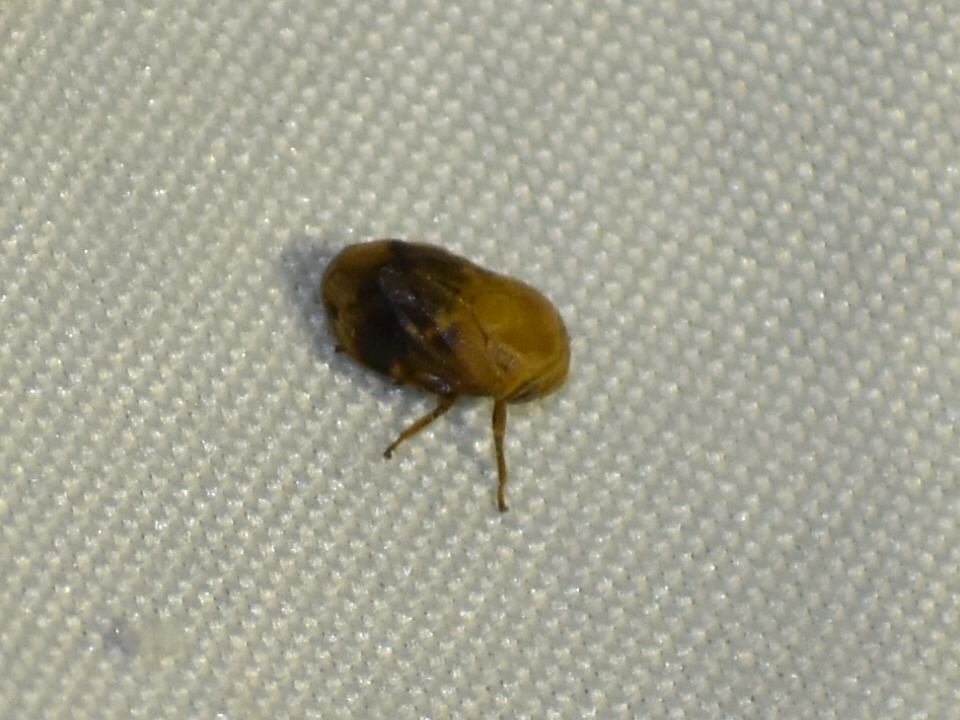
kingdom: Animalia
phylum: Arthropoda
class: Insecta
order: Hemiptera
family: Clastopteridae
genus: Clastoptera
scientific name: Clastoptera achatina
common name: Pecan spittlebug
